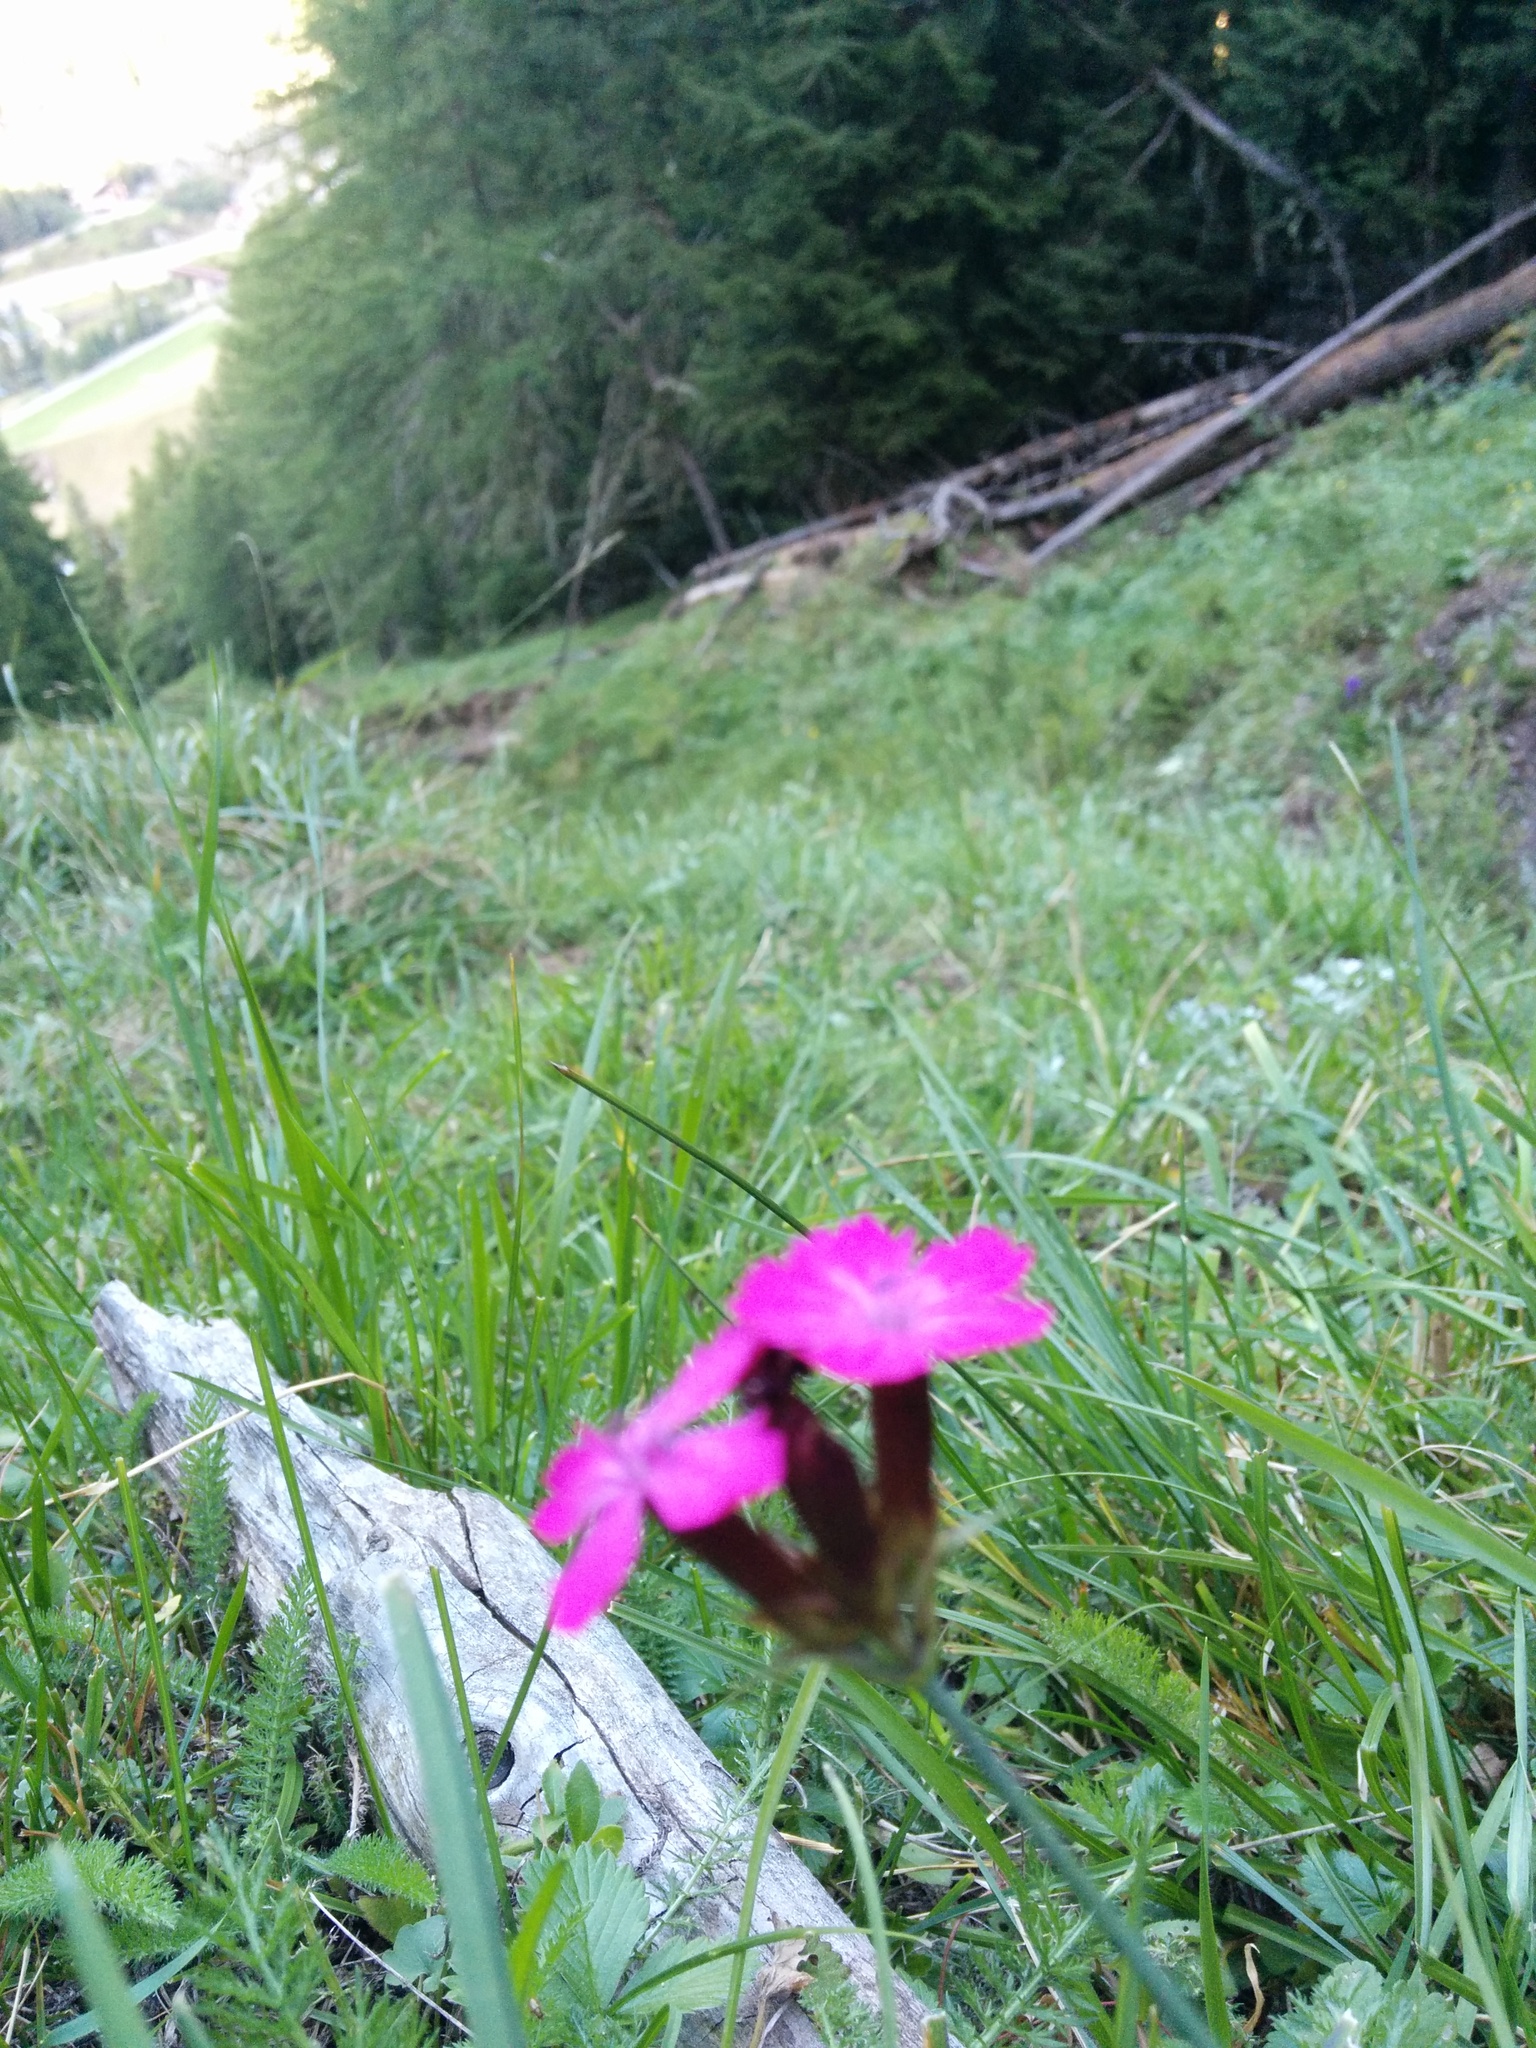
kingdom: Plantae
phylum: Tracheophyta
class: Magnoliopsida
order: Caryophyllales
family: Caryophyllaceae
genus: Dianthus
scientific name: Dianthus carthusianorum
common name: Carthusian pink
